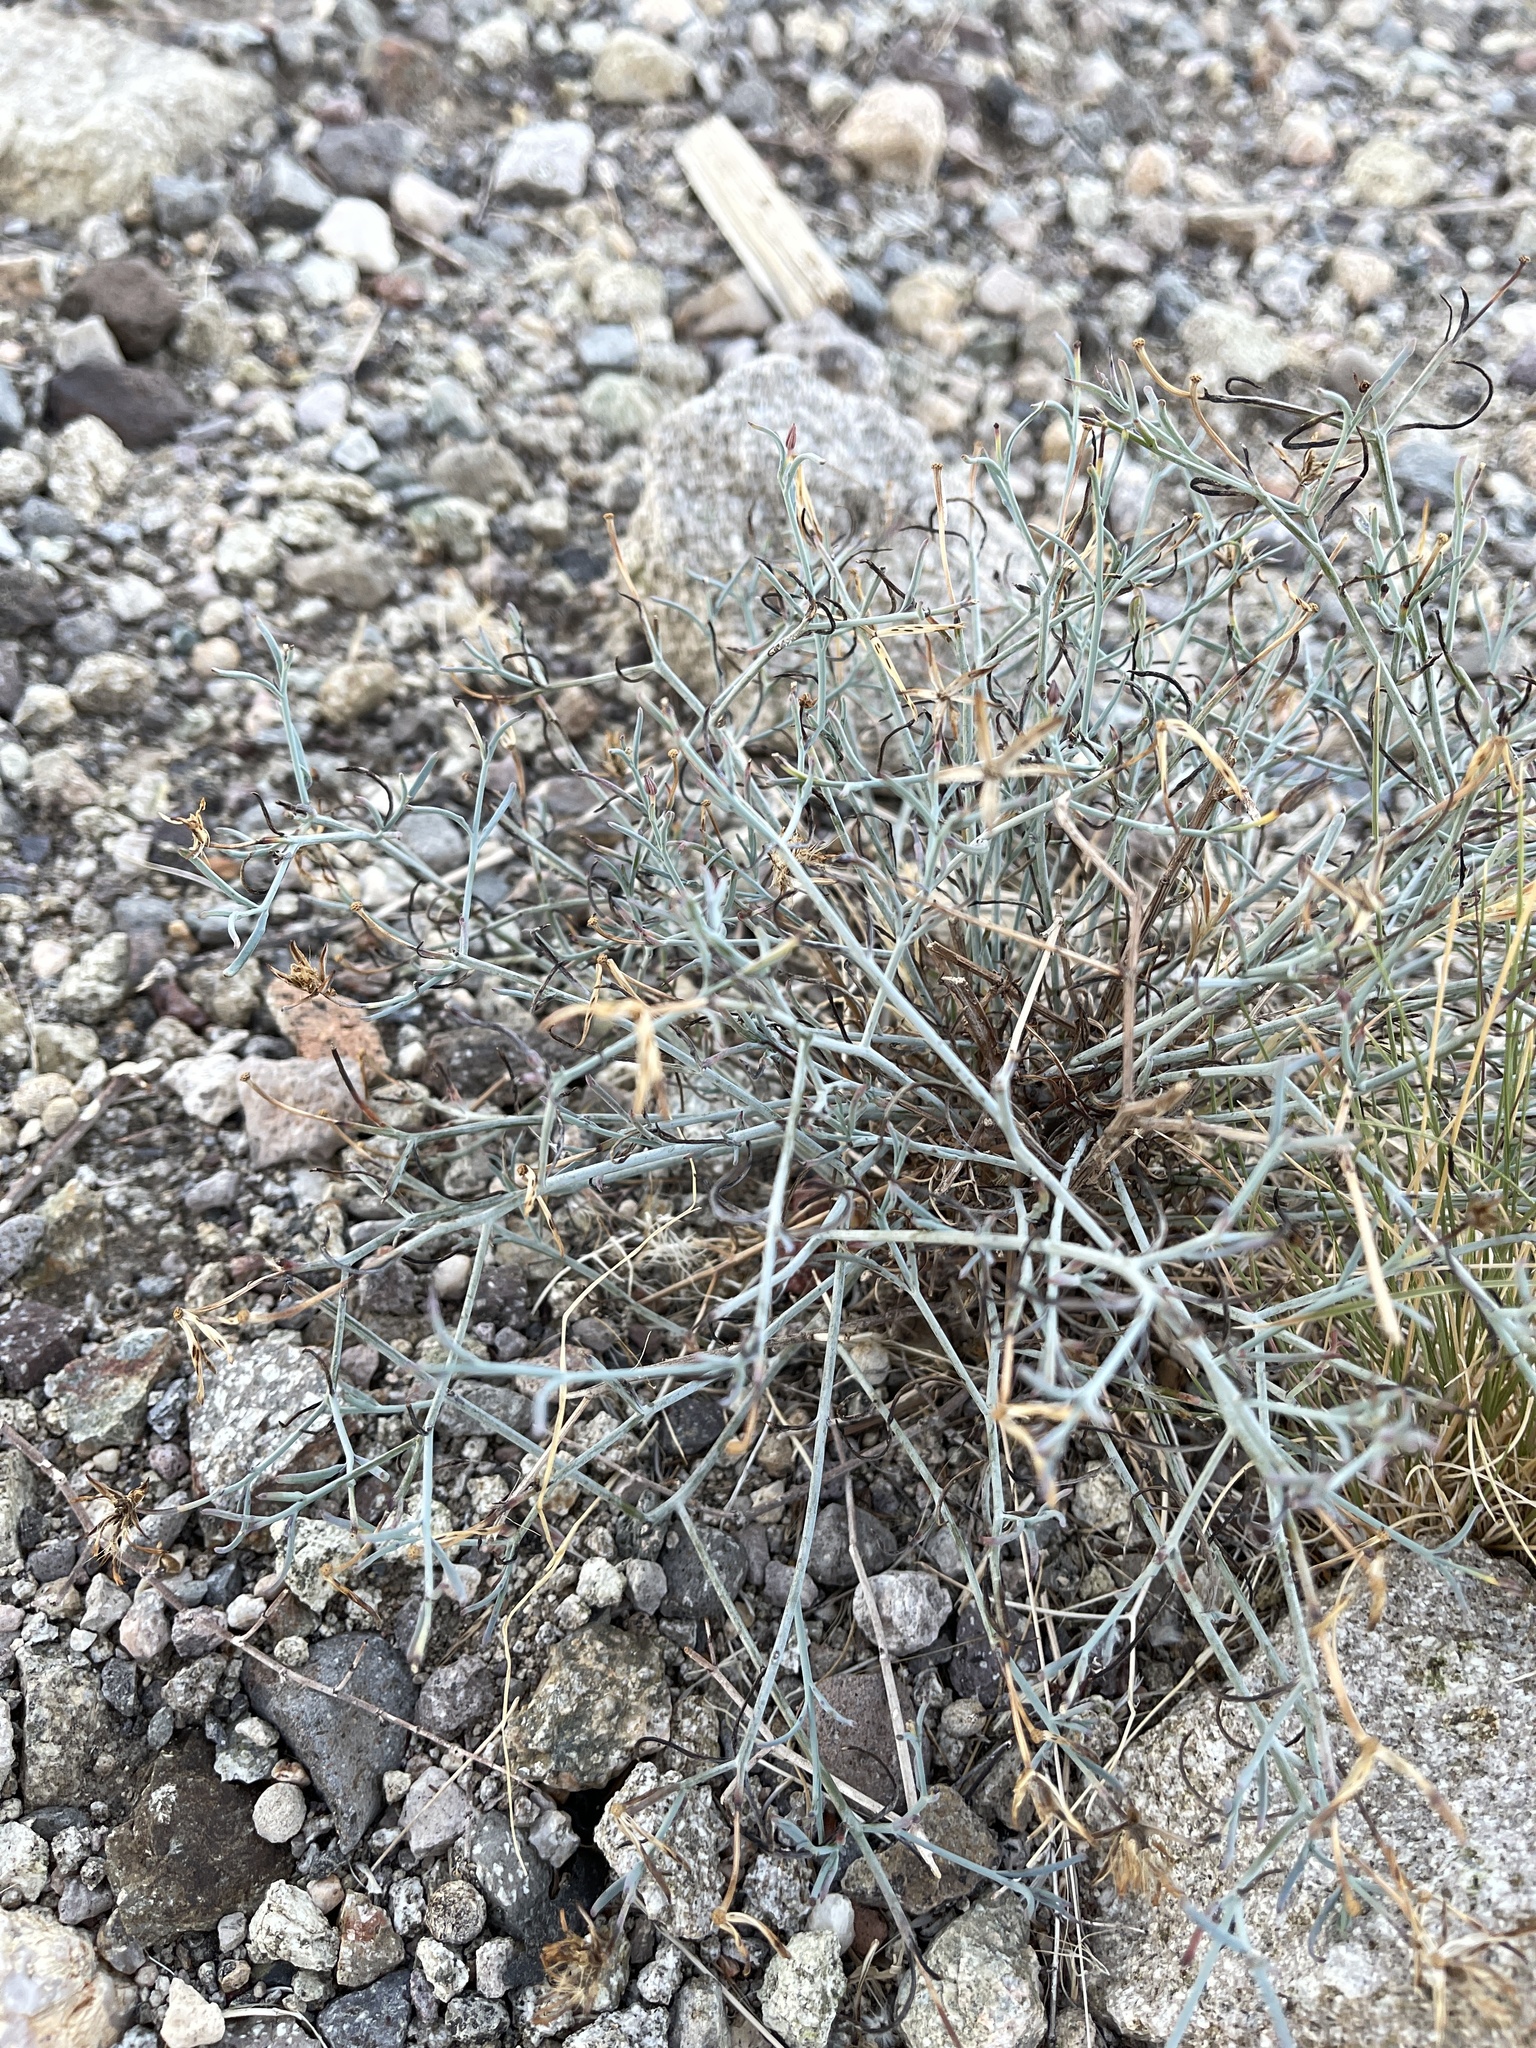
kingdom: Plantae
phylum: Tracheophyta
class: Magnoliopsida
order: Asterales
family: Asteraceae
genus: Porophyllum
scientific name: Porophyllum gracile
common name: Odora
